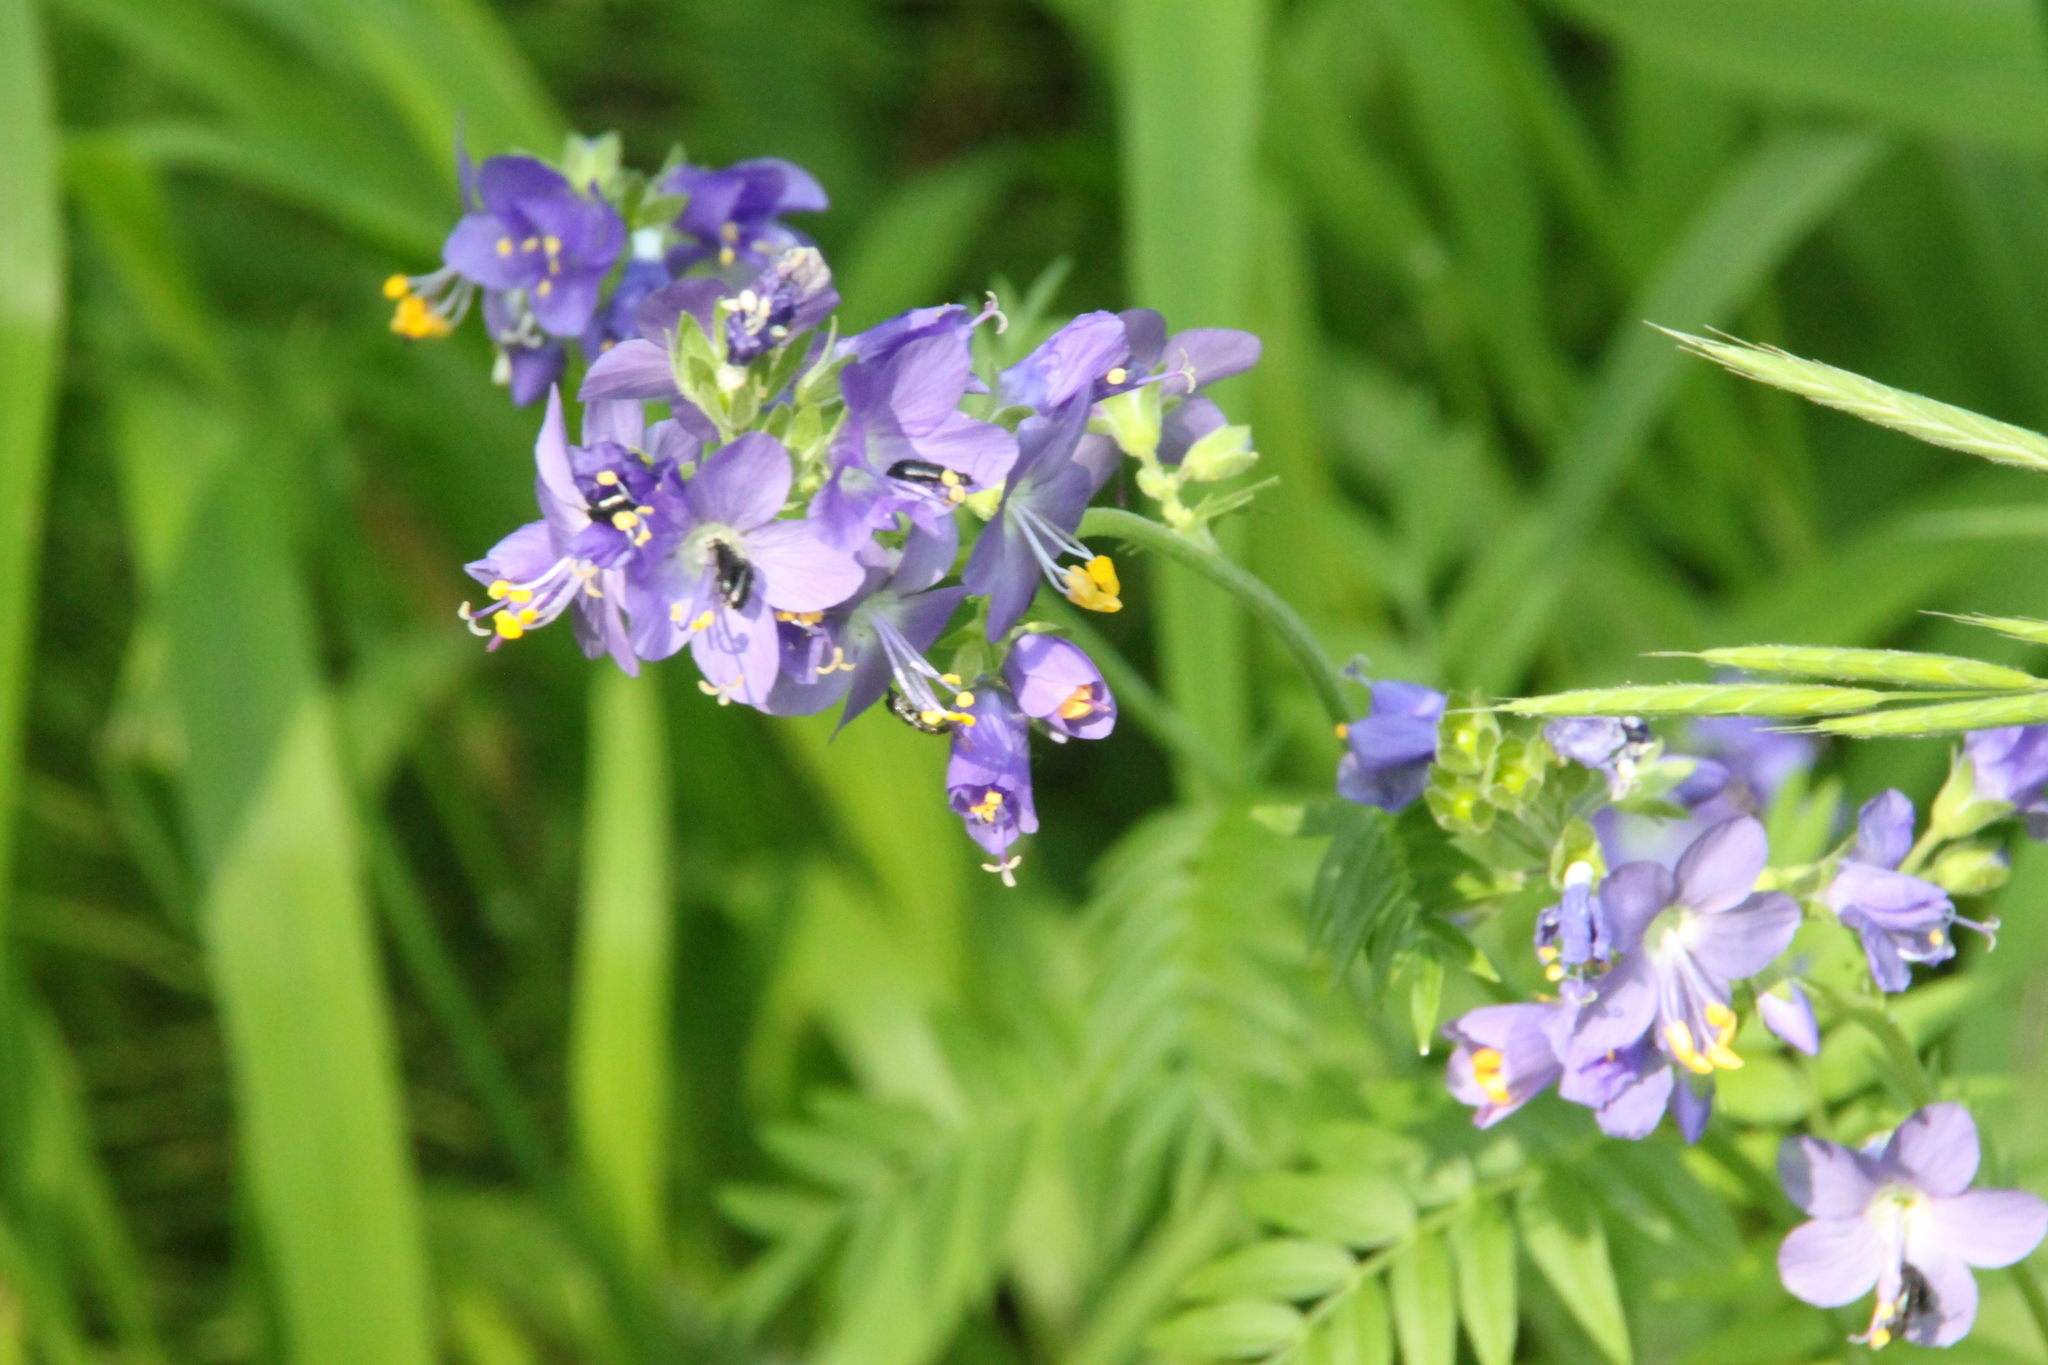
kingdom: Plantae
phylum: Tracheophyta
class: Magnoliopsida
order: Ericales
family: Polemoniaceae
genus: Polemonium
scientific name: Polemonium caeruleum
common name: Jacob's-ladder
